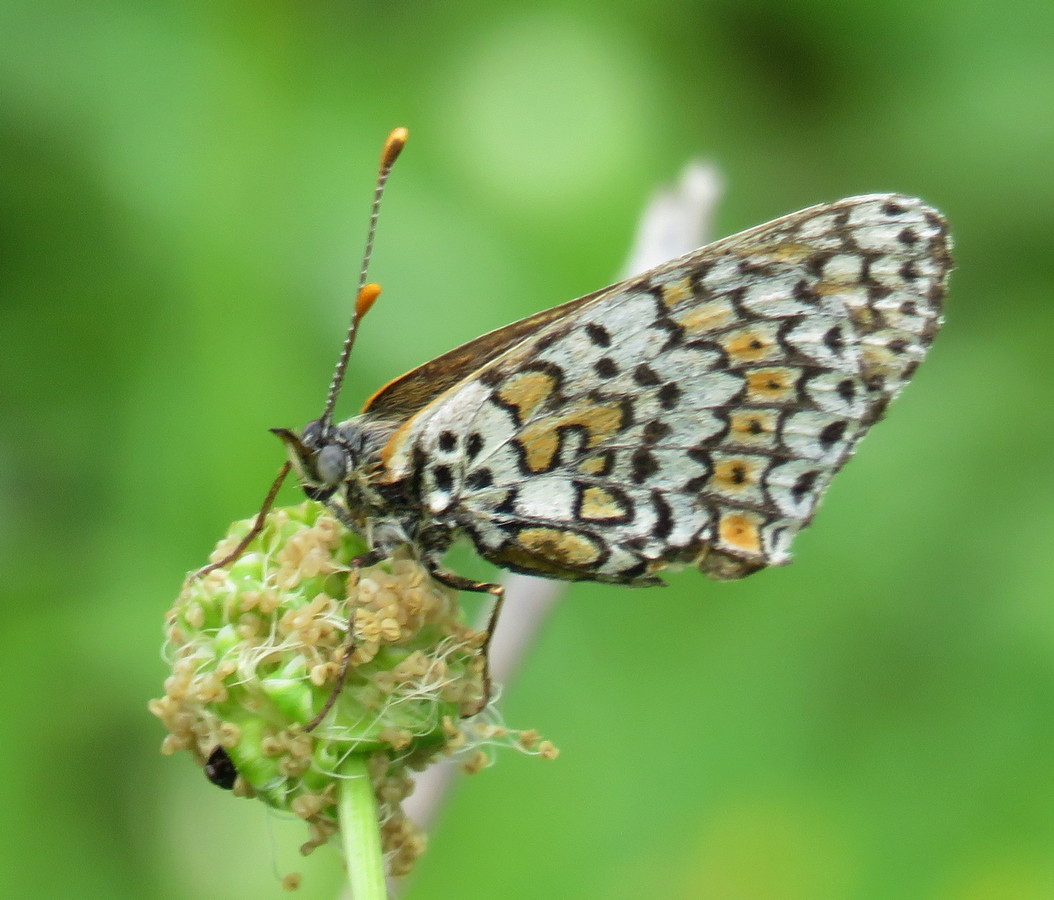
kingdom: Animalia
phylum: Arthropoda
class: Insecta
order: Lepidoptera
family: Nymphalidae
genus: Melitaea
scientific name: Melitaea cinxia
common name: Glanville fritillary
